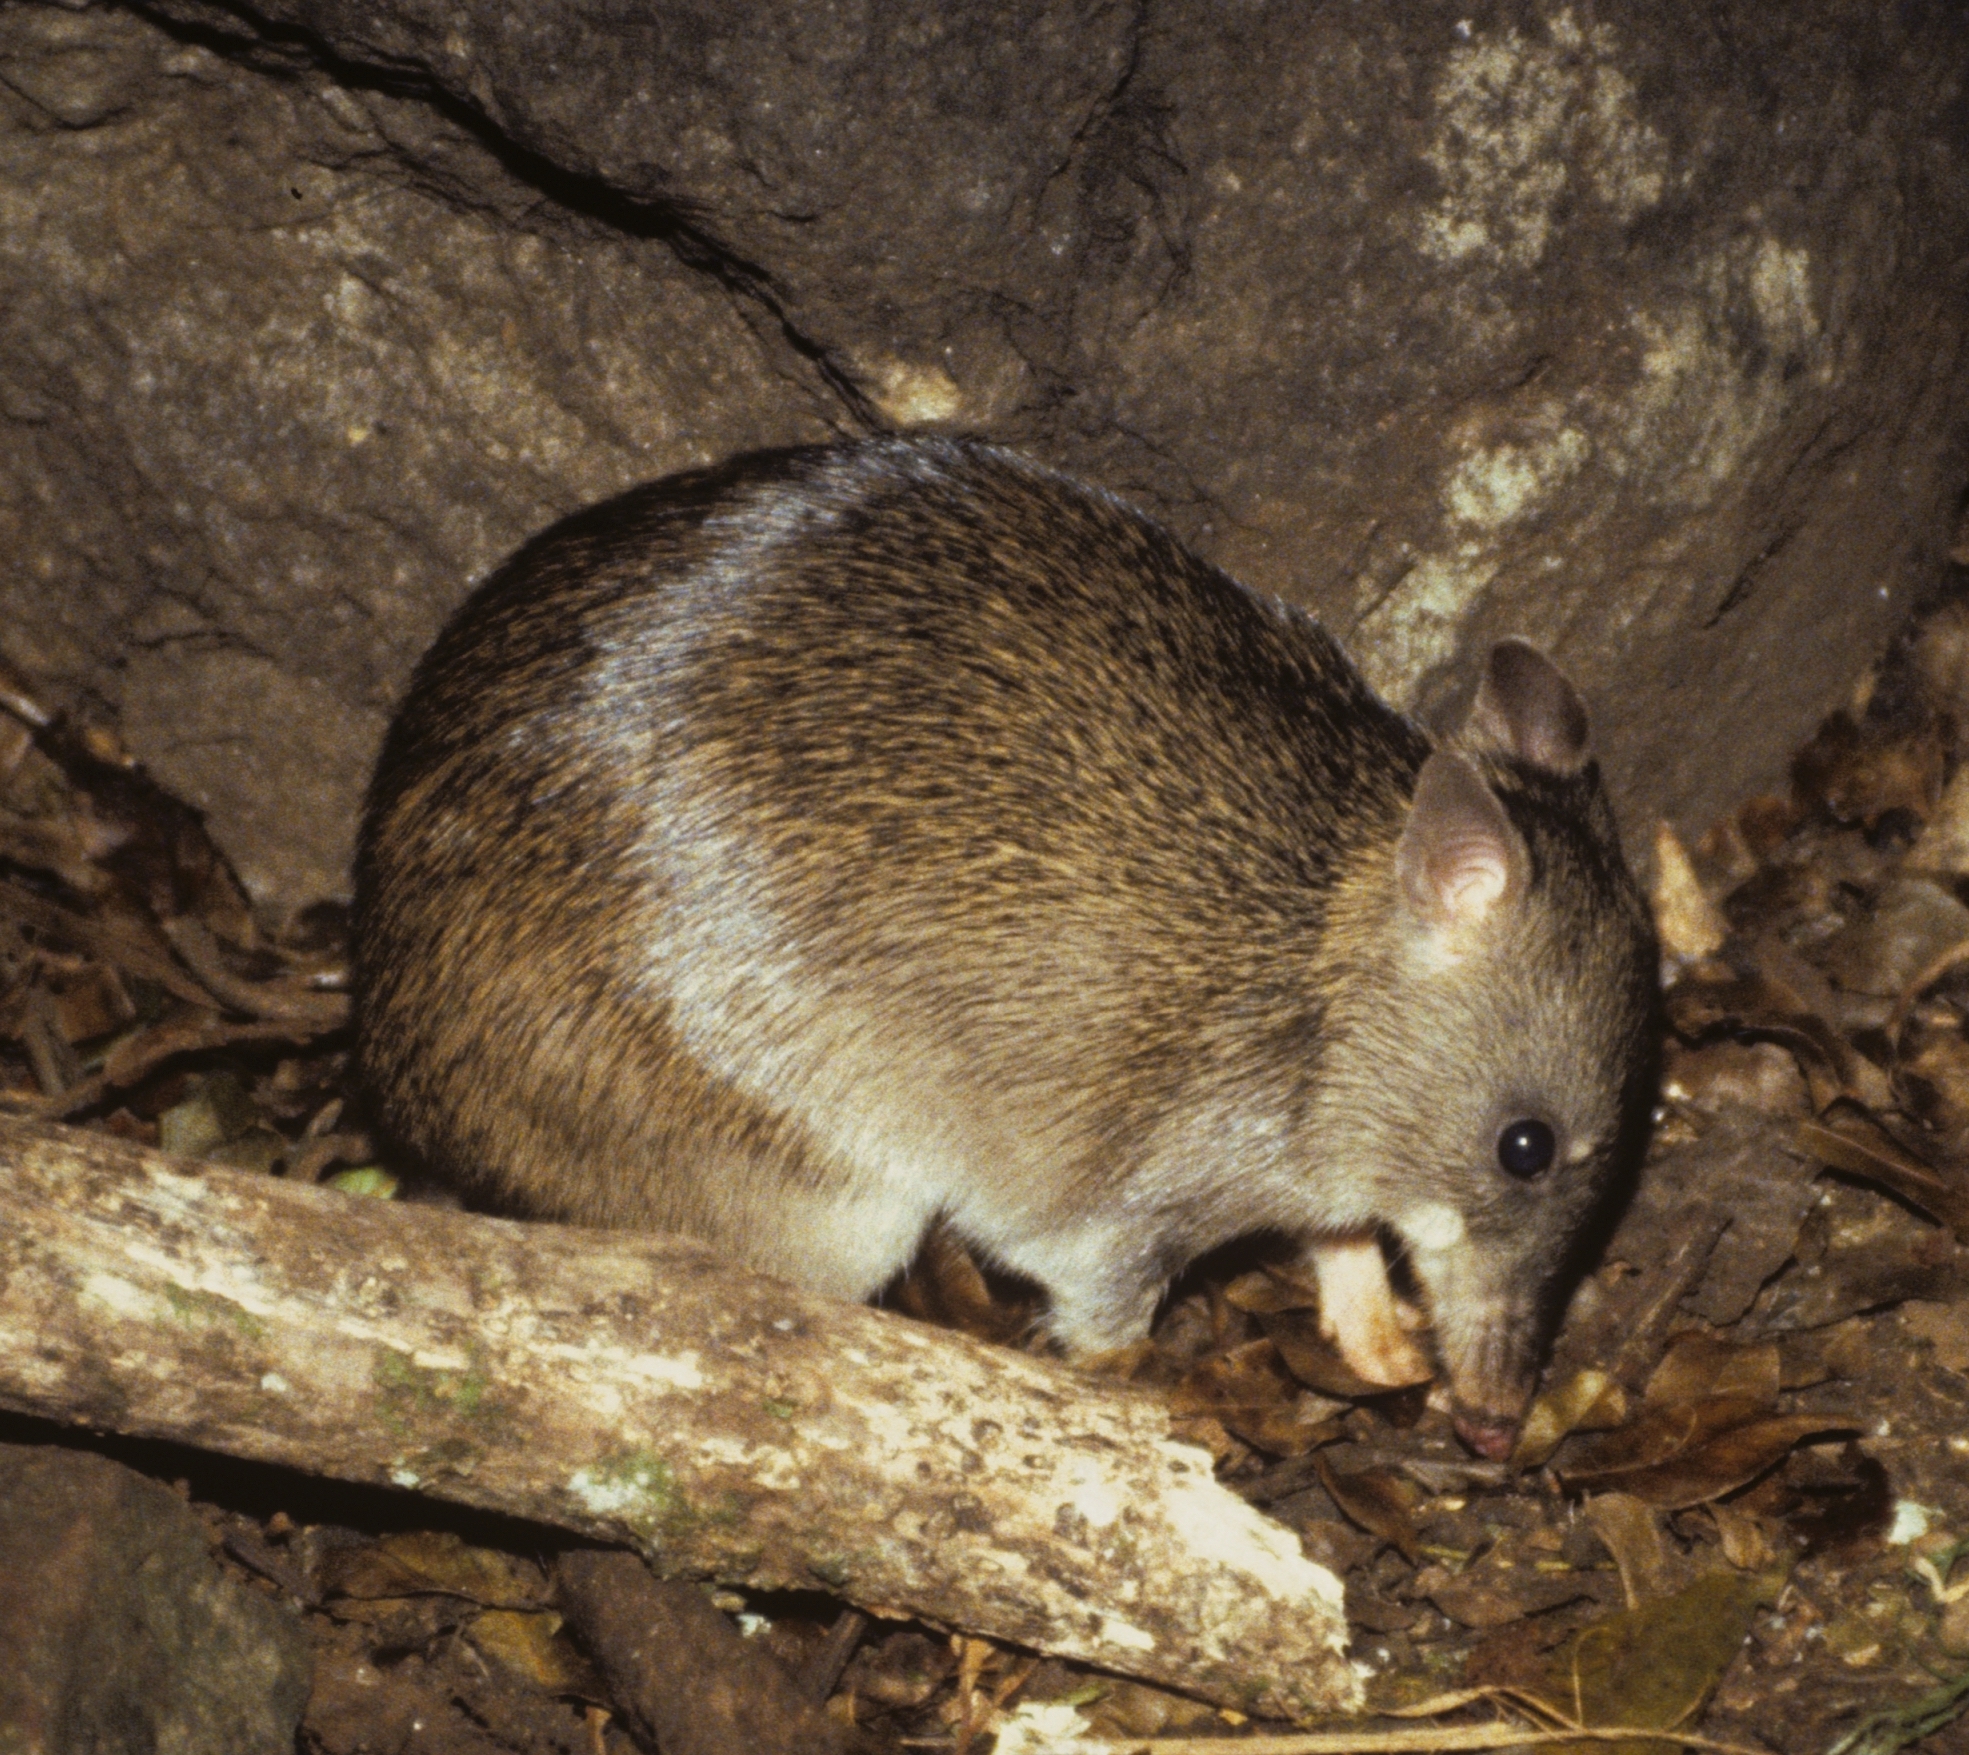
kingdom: Animalia
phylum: Chordata
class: Mammalia
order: Peramelemorphia
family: Peramelidae
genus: Isoodon
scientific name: Isoodon macrourus
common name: Northern brown bandicoot
